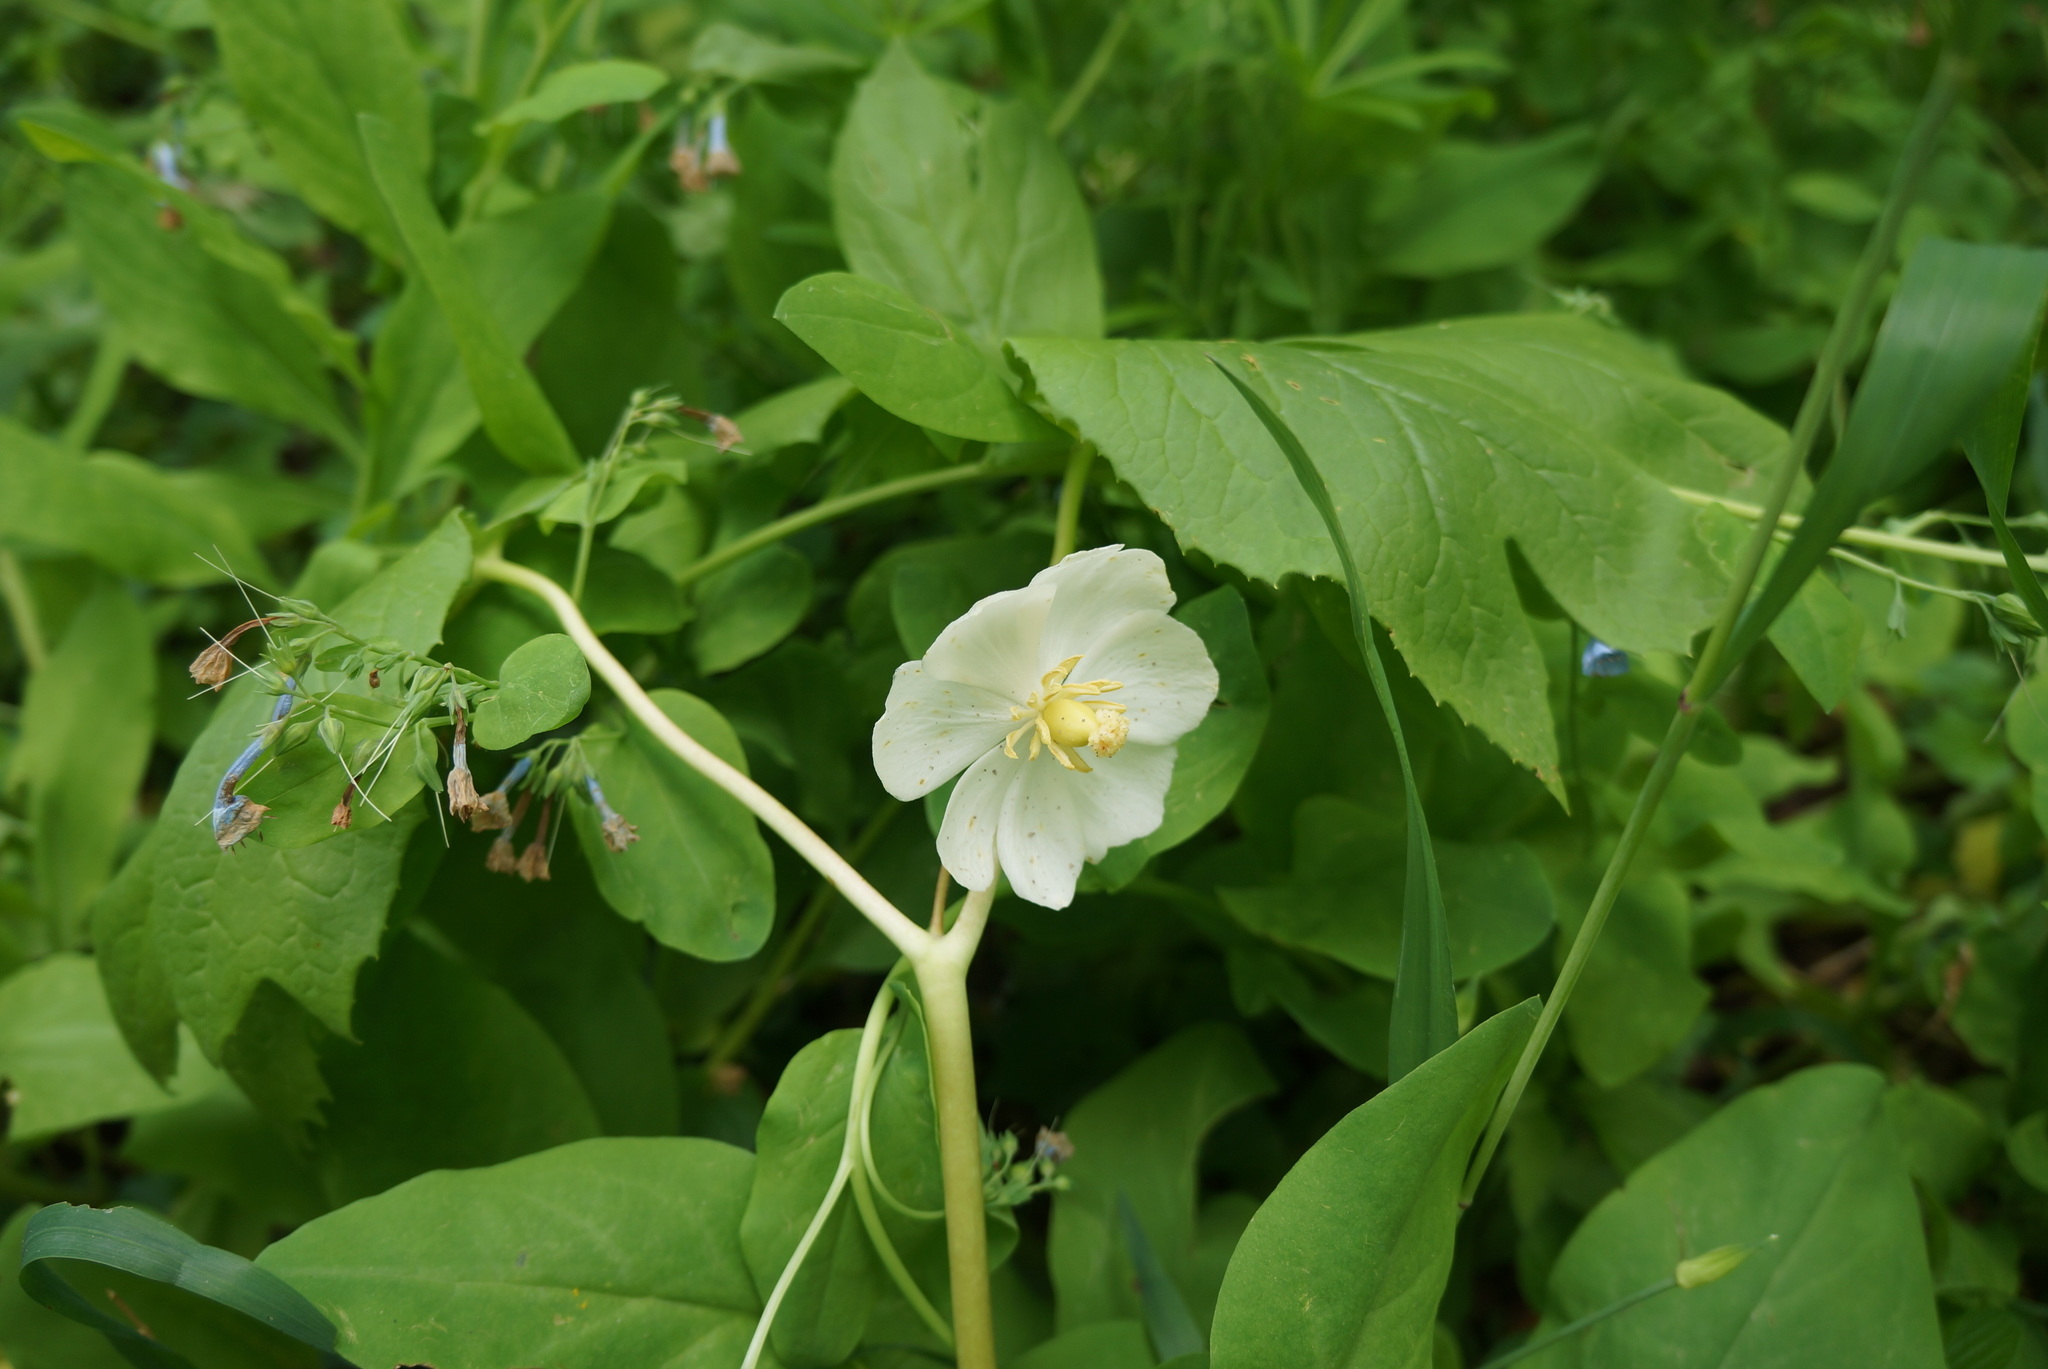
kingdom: Plantae
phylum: Tracheophyta
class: Magnoliopsida
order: Ranunculales
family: Berberidaceae
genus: Podophyllum
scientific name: Podophyllum peltatum
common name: Wild mandrake
